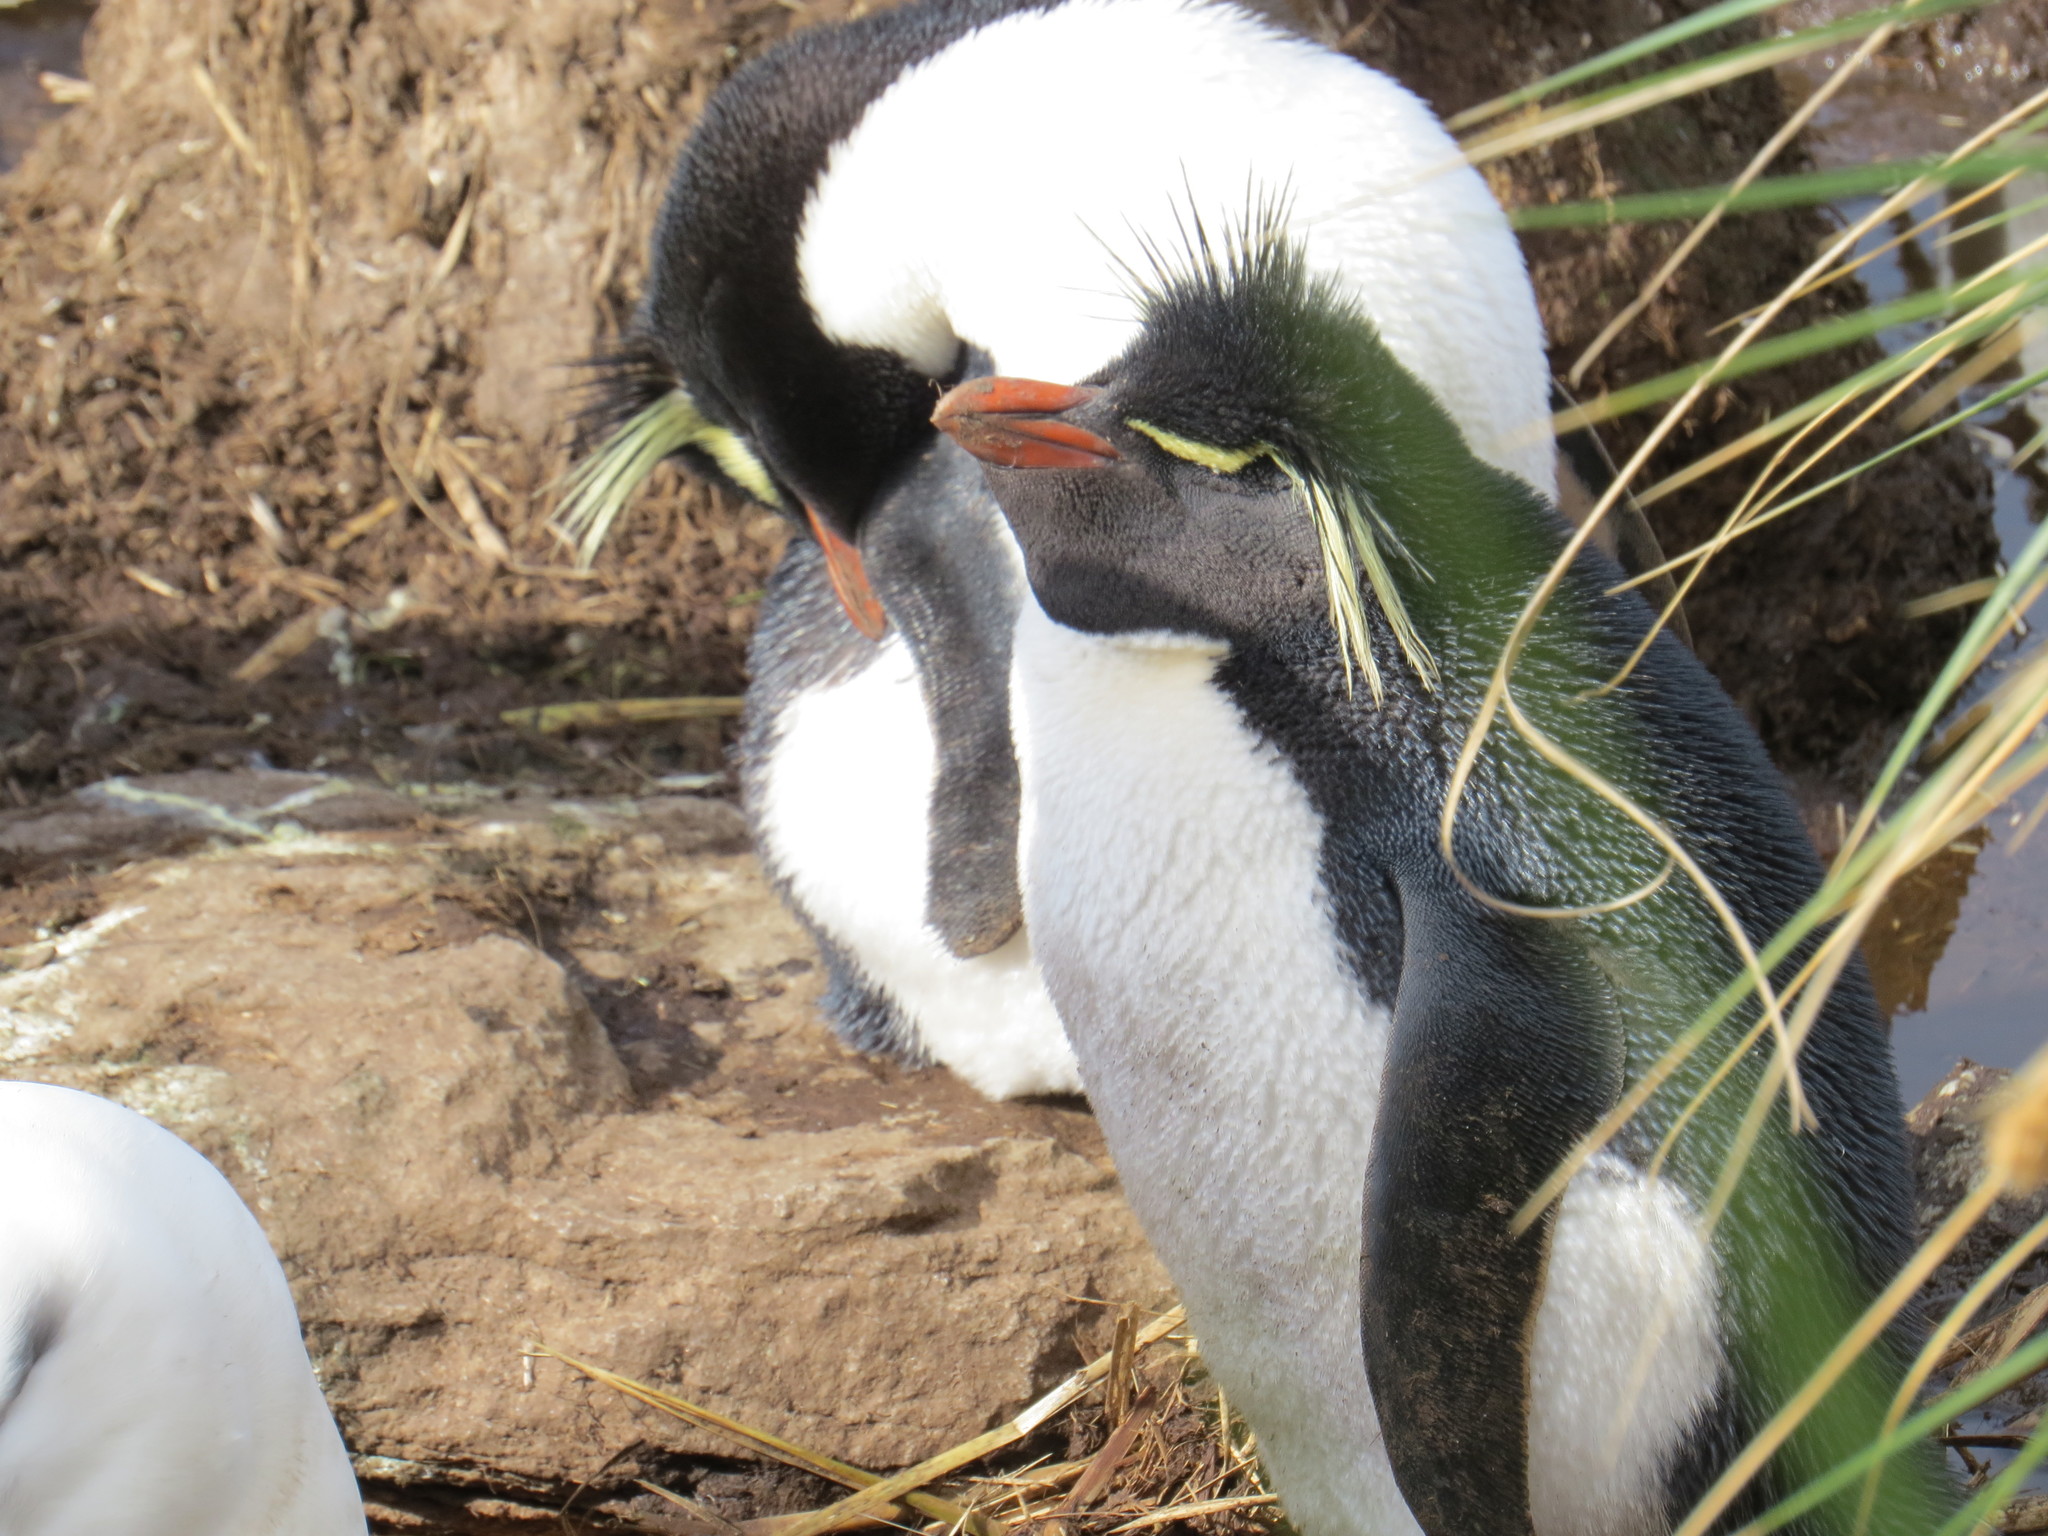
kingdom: Animalia
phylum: Chordata
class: Aves
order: Sphenisciformes
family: Spheniscidae
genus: Eudyptes
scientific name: Eudyptes chrysocome
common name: Southern rockhopper penguin
